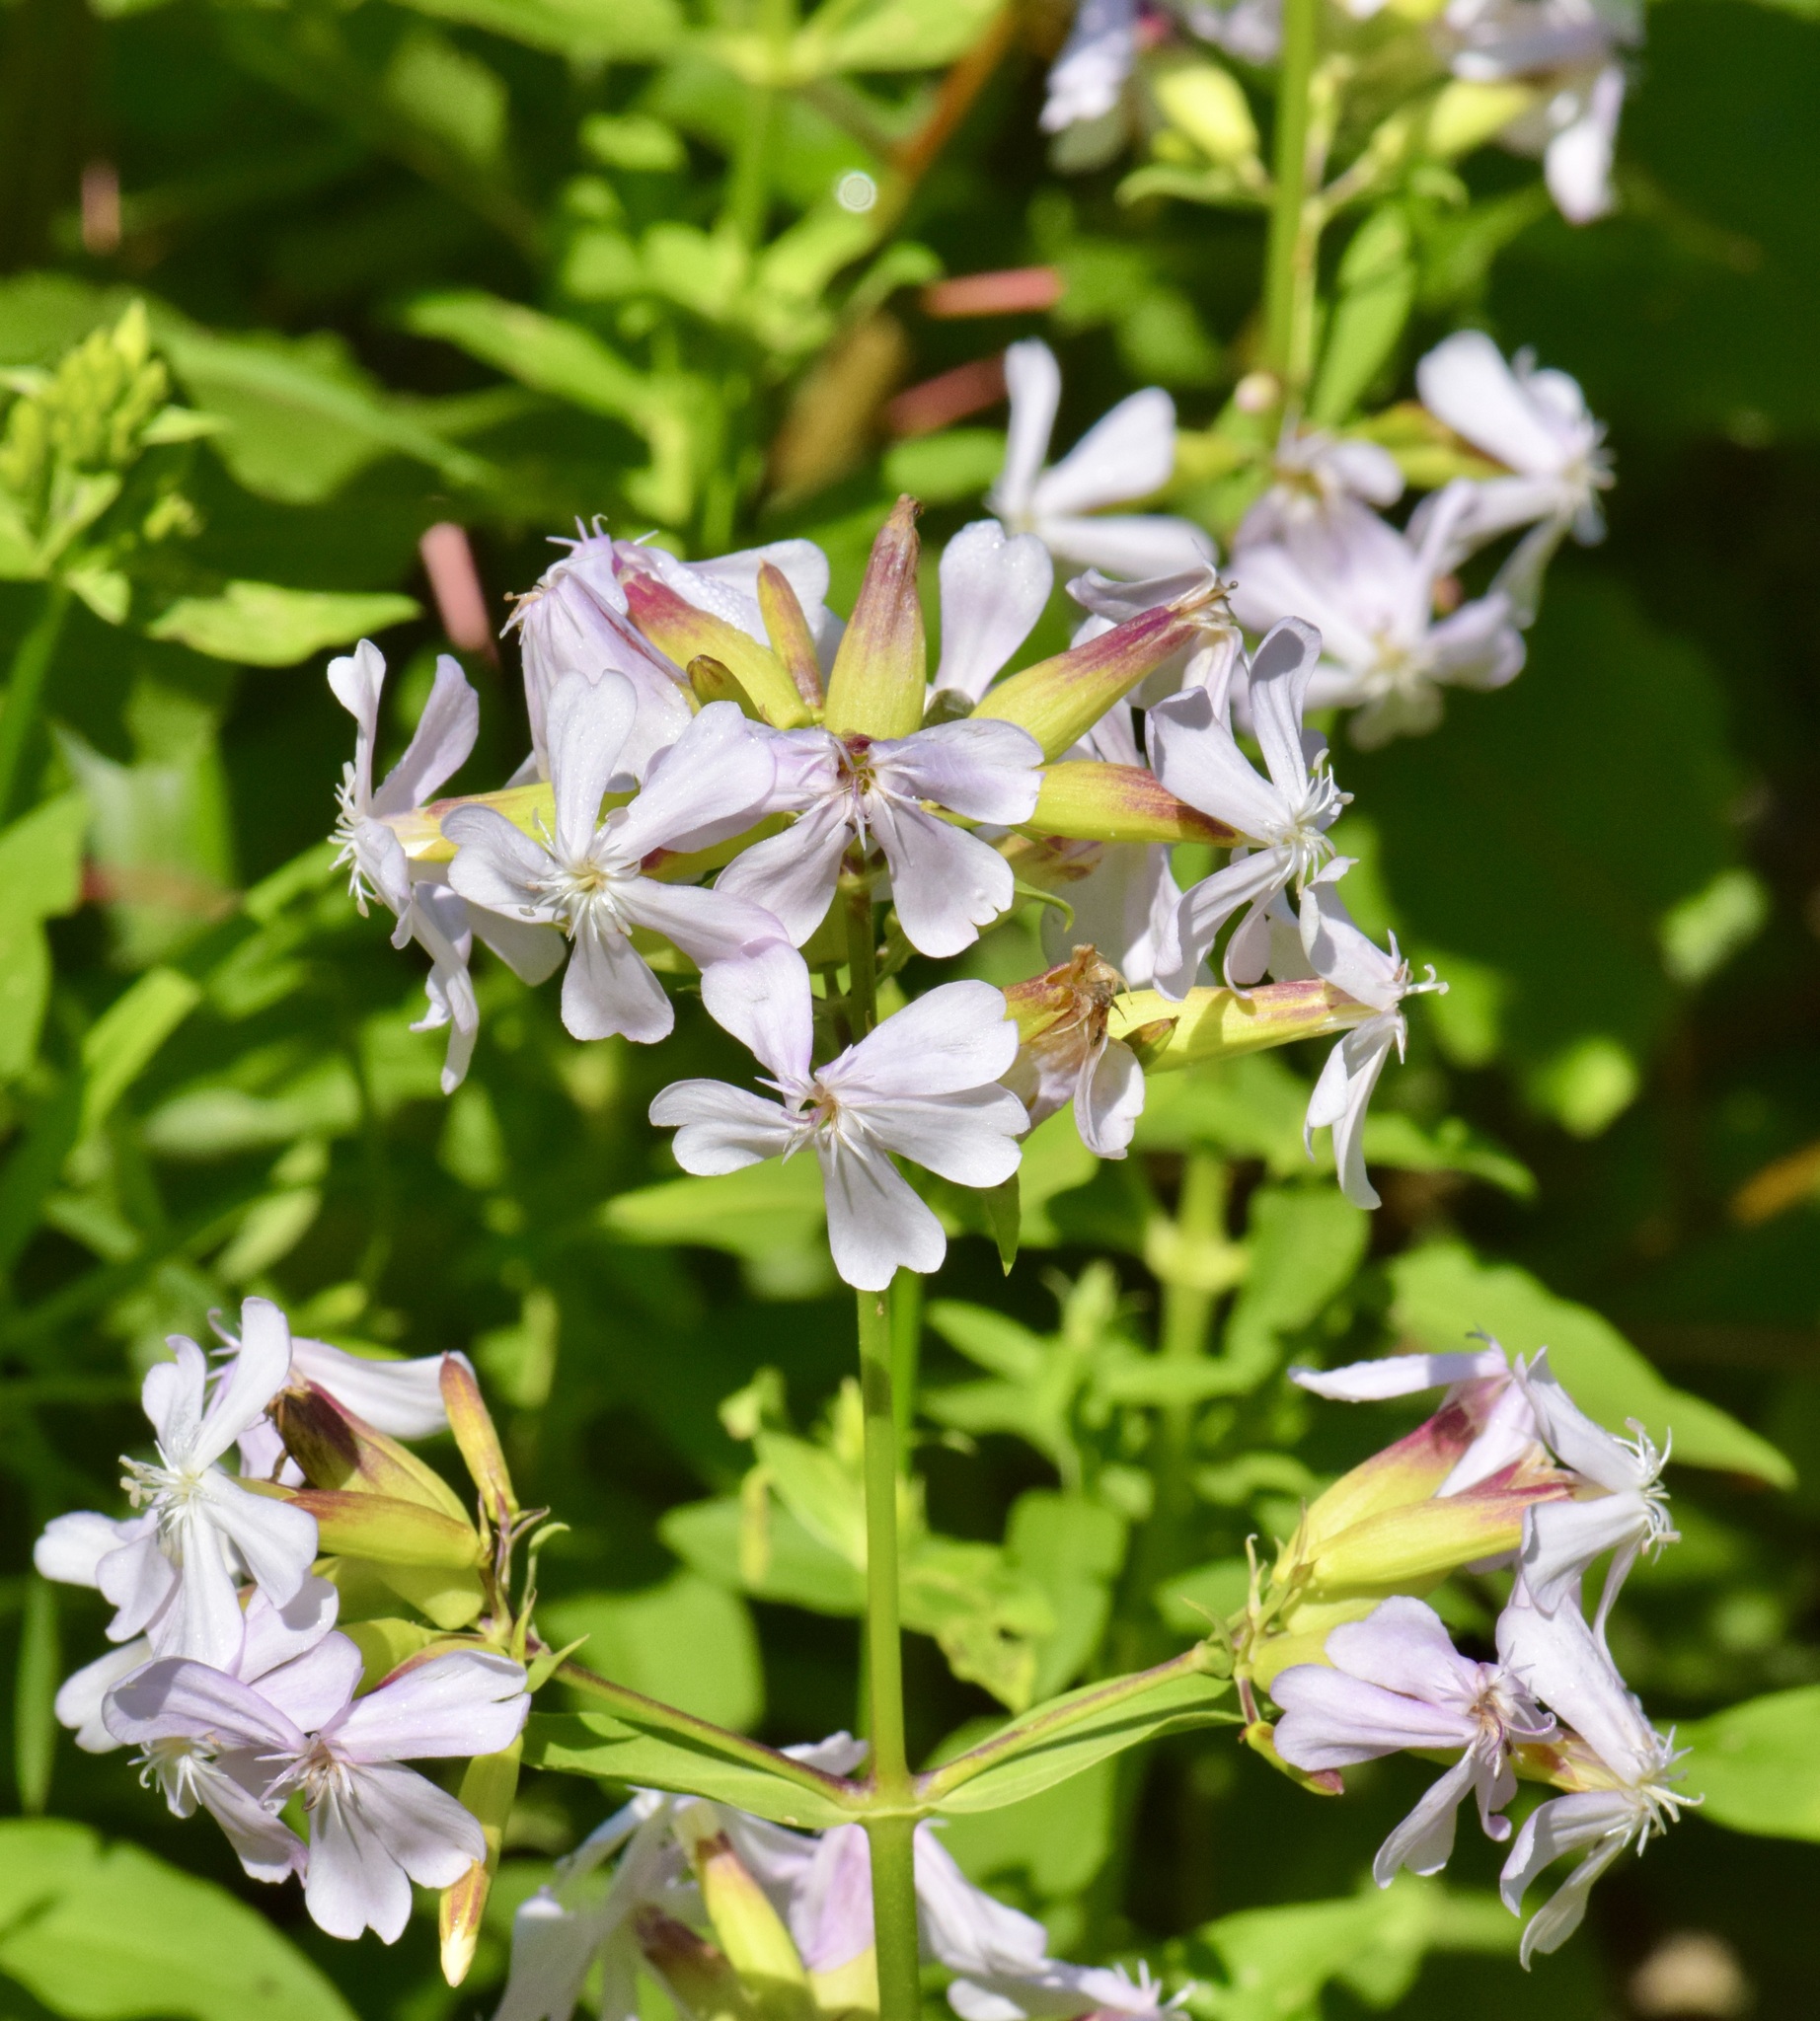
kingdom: Plantae
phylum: Tracheophyta
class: Magnoliopsida
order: Caryophyllales
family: Caryophyllaceae
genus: Saponaria
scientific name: Saponaria officinalis
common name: Soapwort
